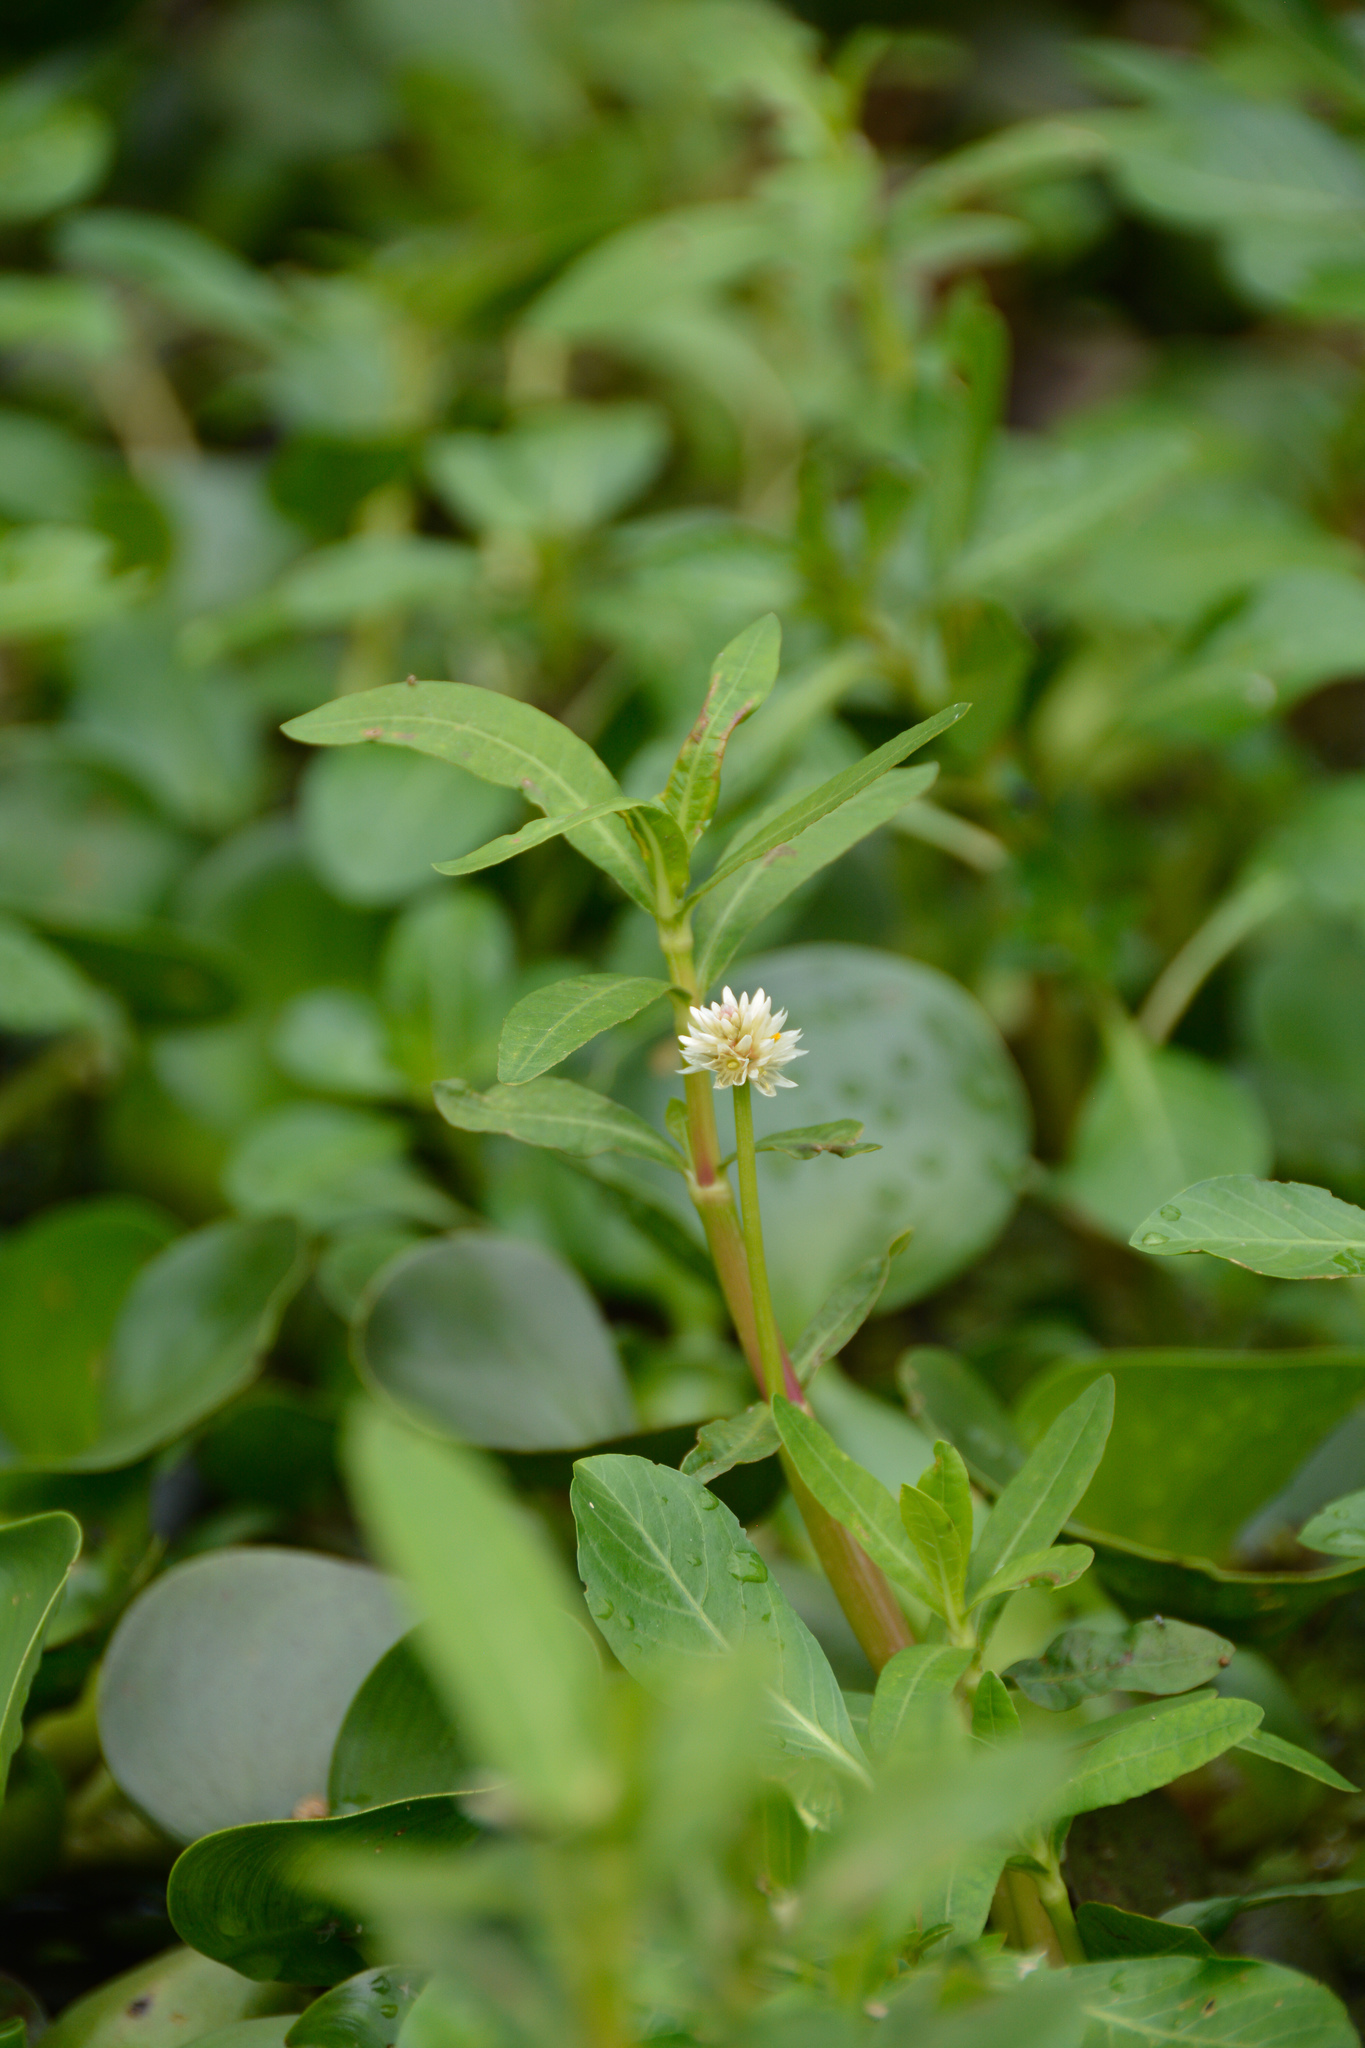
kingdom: Plantae
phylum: Tracheophyta
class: Magnoliopsida
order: Caryophyllales
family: Amaranthaceae
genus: Alternanthera
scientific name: Alternanthera philoxeroides
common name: Alligatorweed
